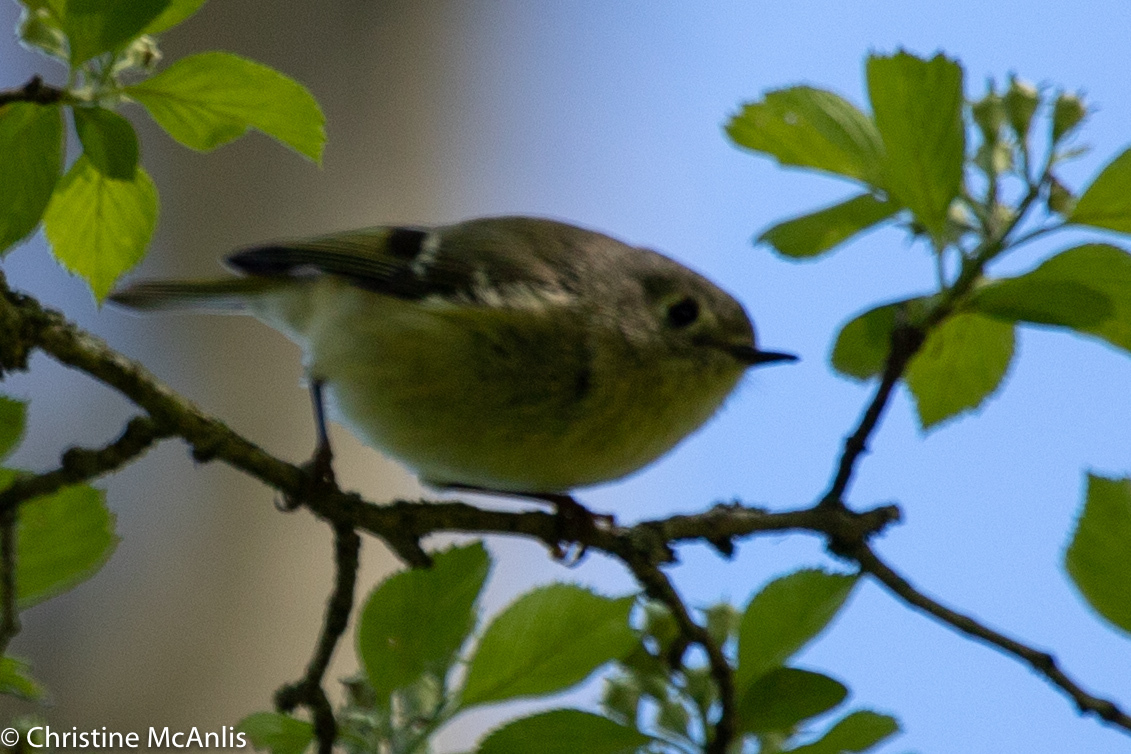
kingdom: Animalia
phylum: Chordata
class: Aves
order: Passeriformes
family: Regulidae
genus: Regulus
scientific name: Regulus calendula
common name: Ruby-crowned kinglet
